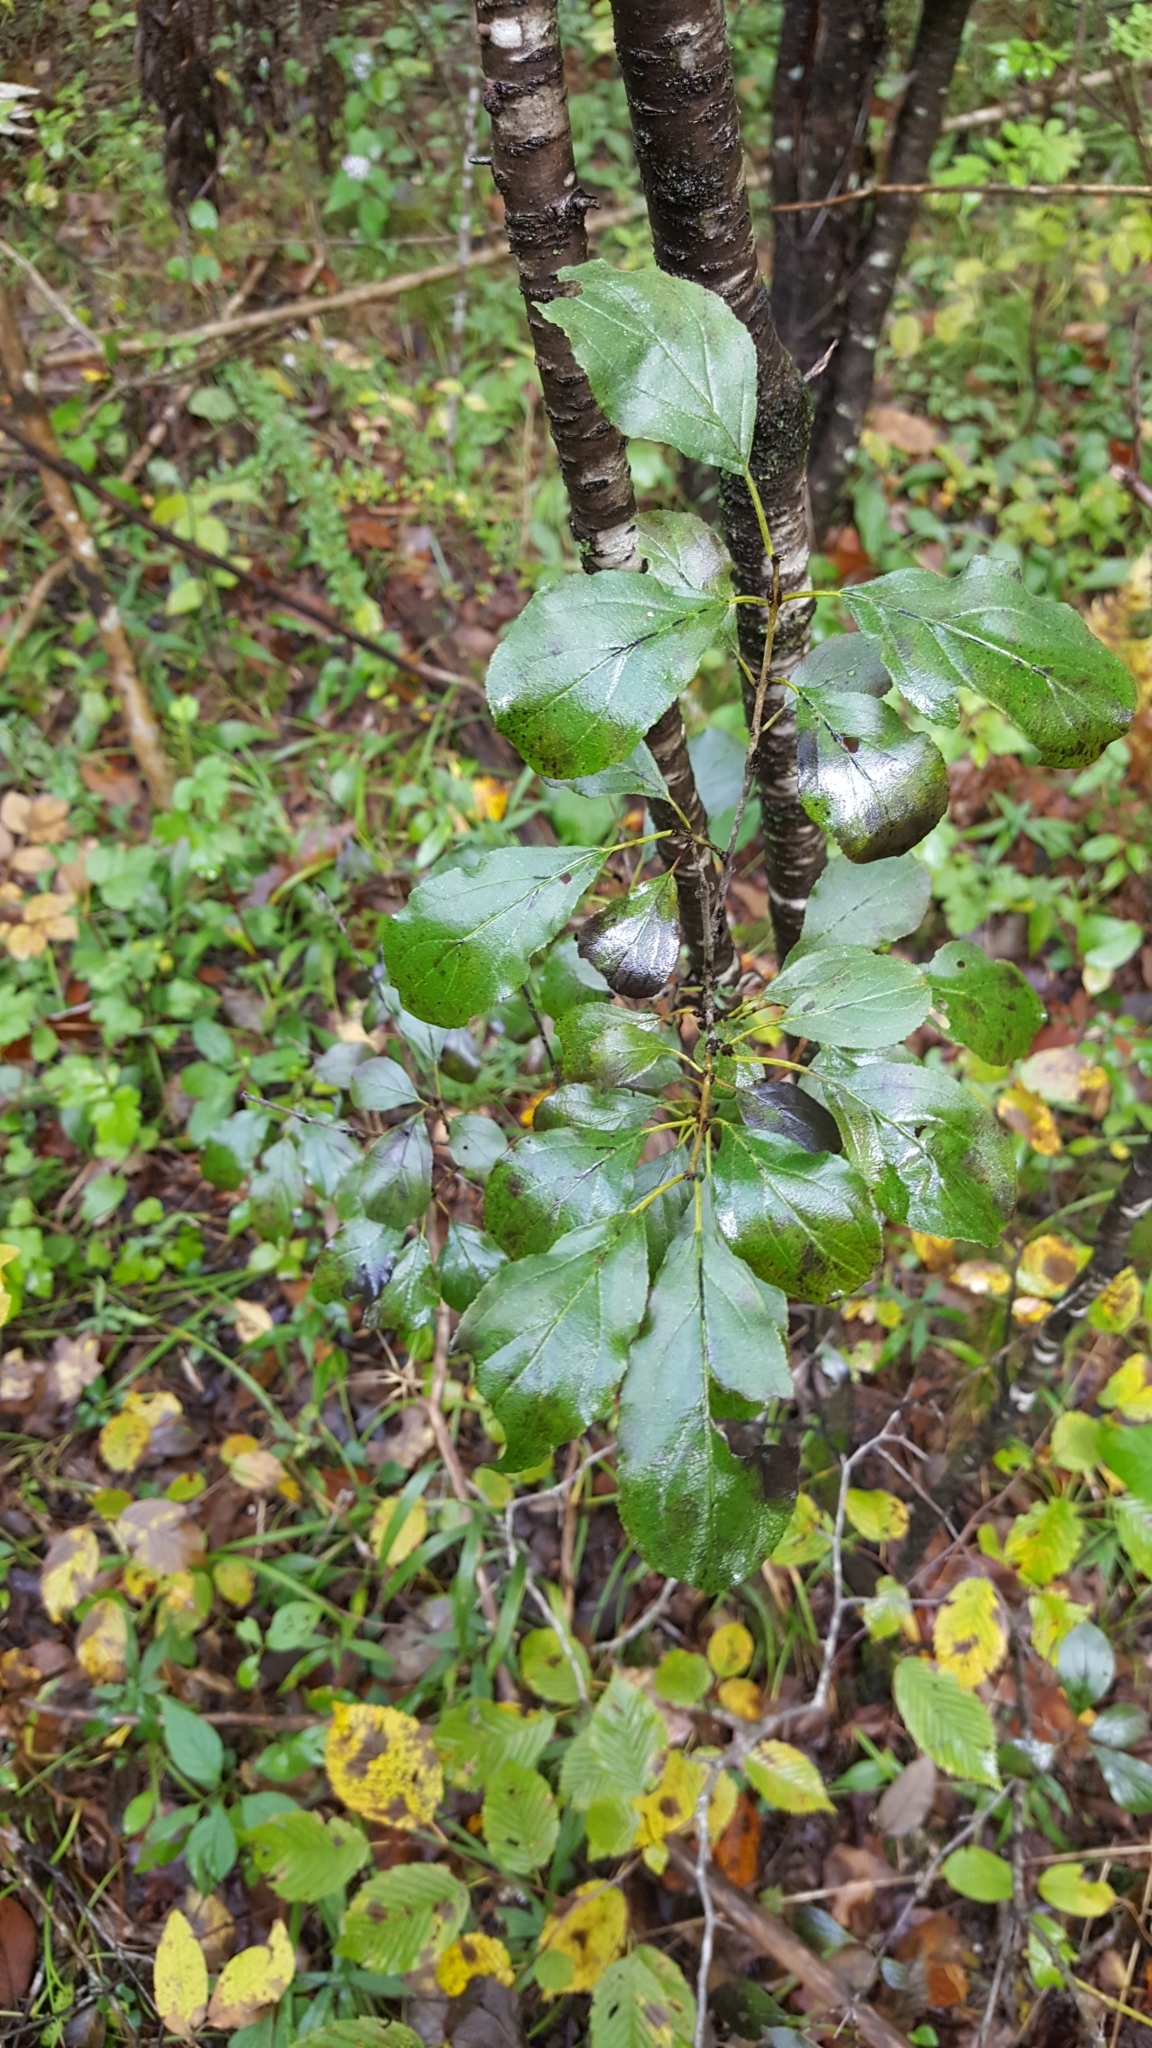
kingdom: Plantae
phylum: Tracheophyta
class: Magnoliopsida
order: Rosales
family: Rhamnaceae
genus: Rhamnus
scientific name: Rhamnus cathartica
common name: Common buckthorn
